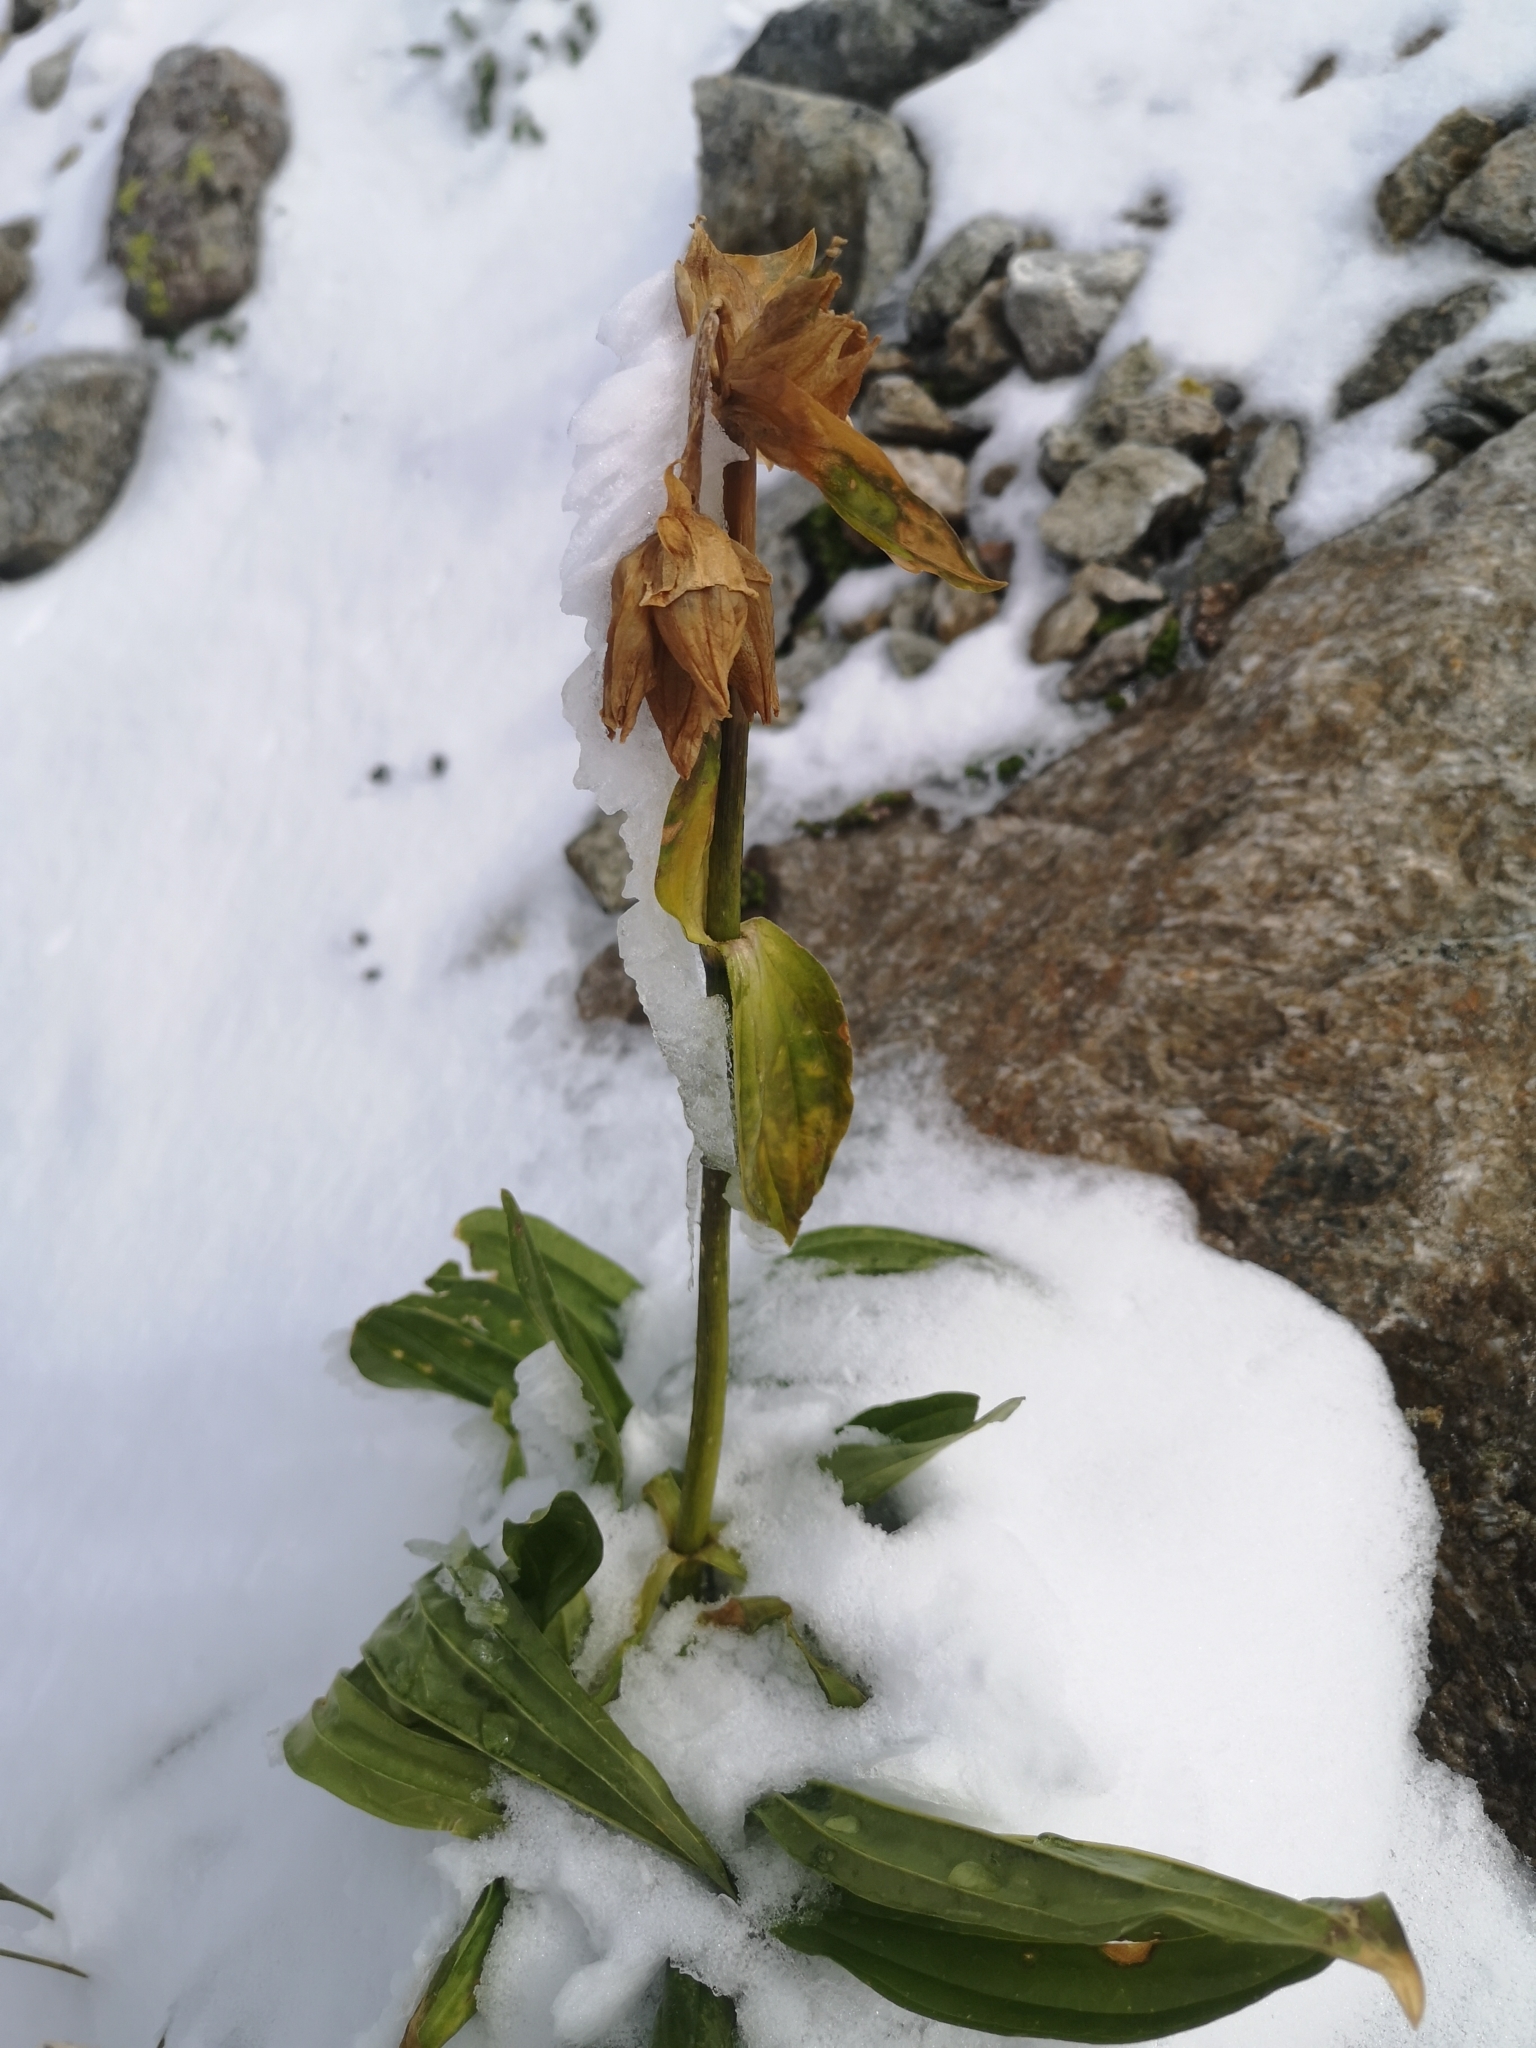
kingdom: Plantae
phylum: Tracheophyta
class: Magnoliopsida
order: Gentianales
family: Gentianaceae
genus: Gentiana
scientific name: Gentiana punctata
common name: Spotted gentian
